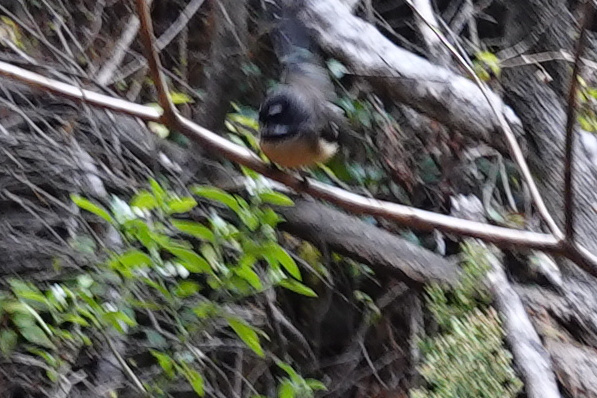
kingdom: Animalia
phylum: Chordata
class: Aves
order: Passeriformes
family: Rhipiduridae
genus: Rhipidura
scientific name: Rhipidura fuliginosa
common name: New zealand fantail
